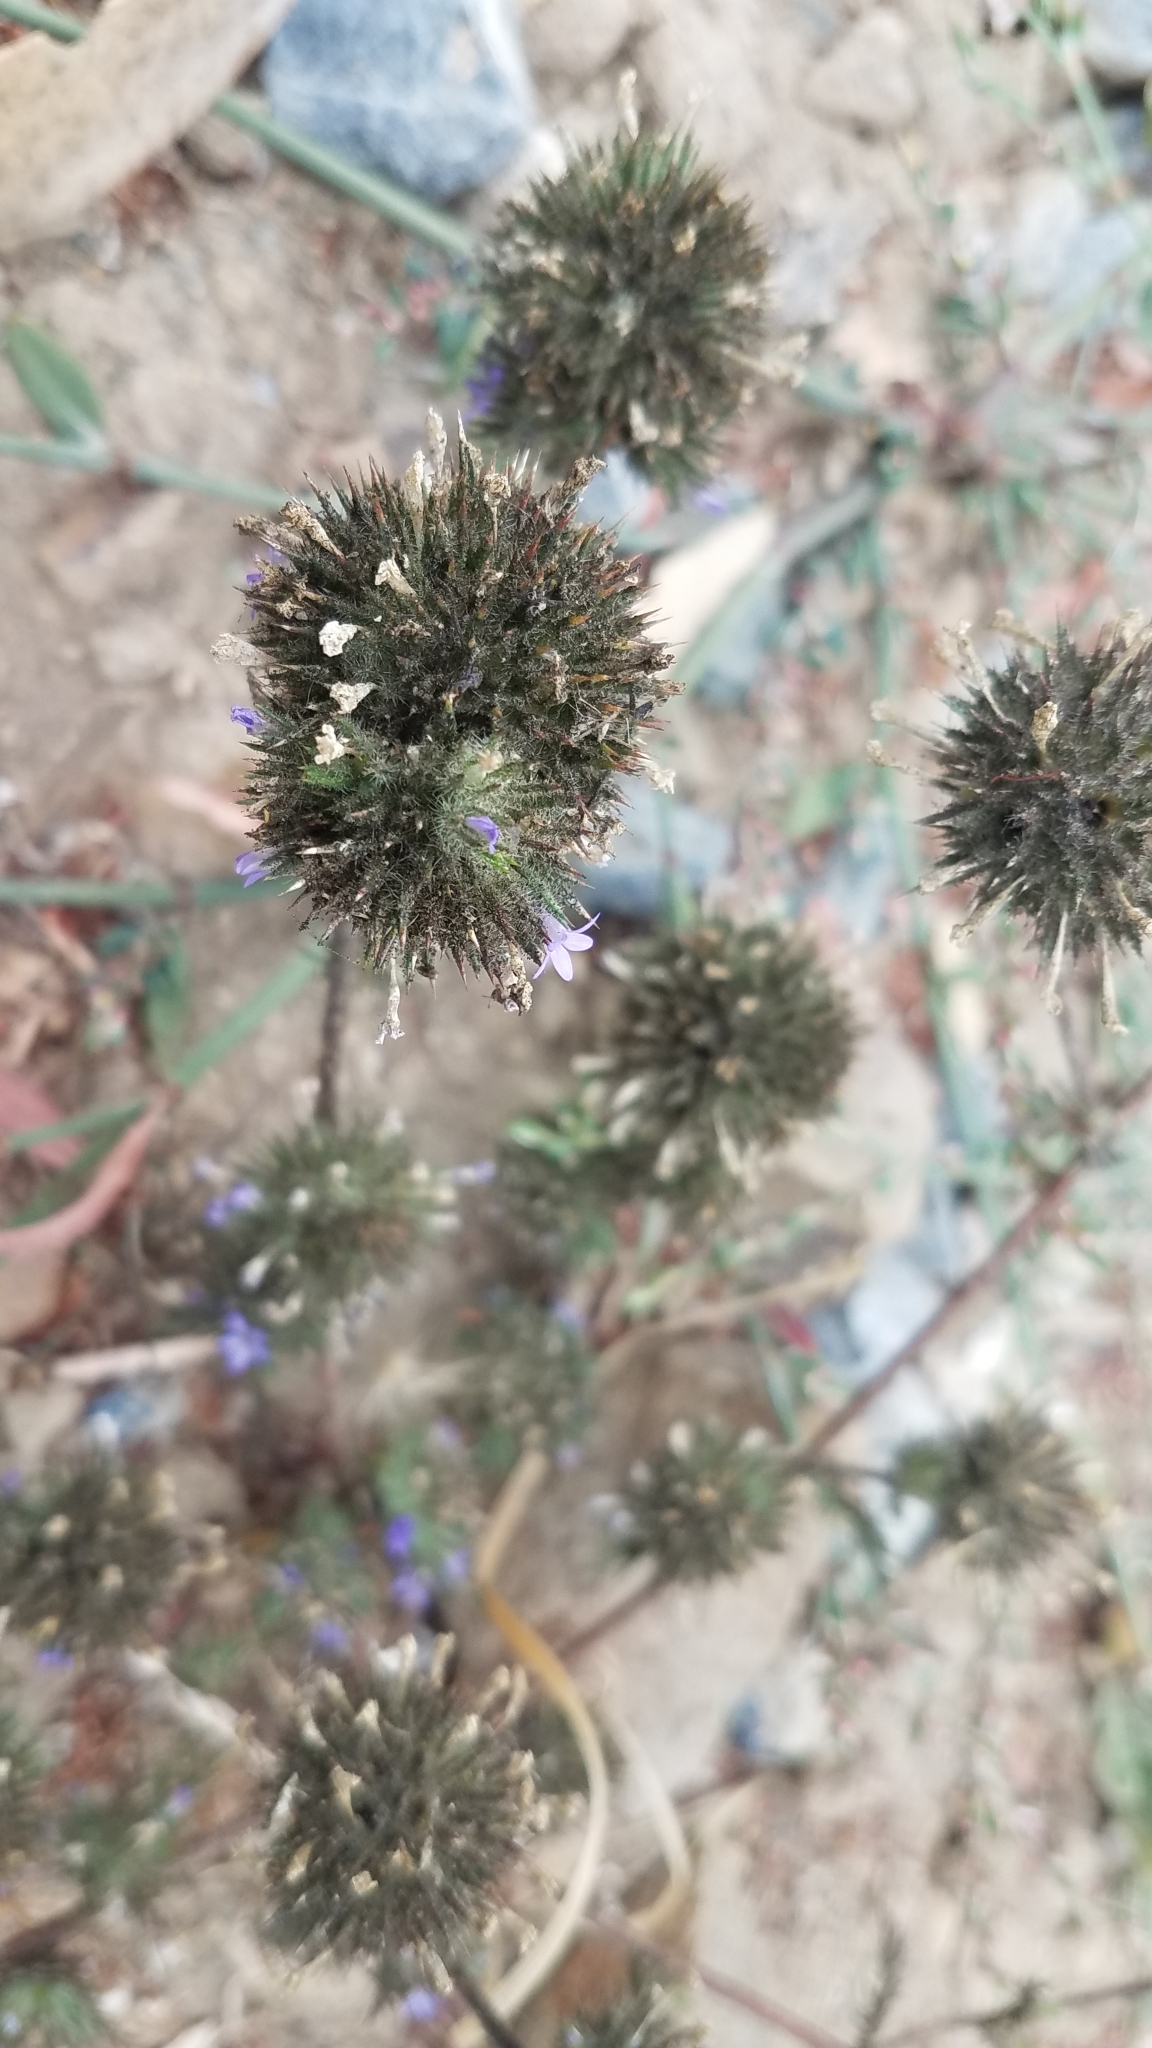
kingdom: Plantae
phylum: Tracheophyta
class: Magnoliopsida
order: Ericales
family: Polemoniaceae
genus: Navarretia
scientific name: Navarretia squarrosa
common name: Skunkweed
